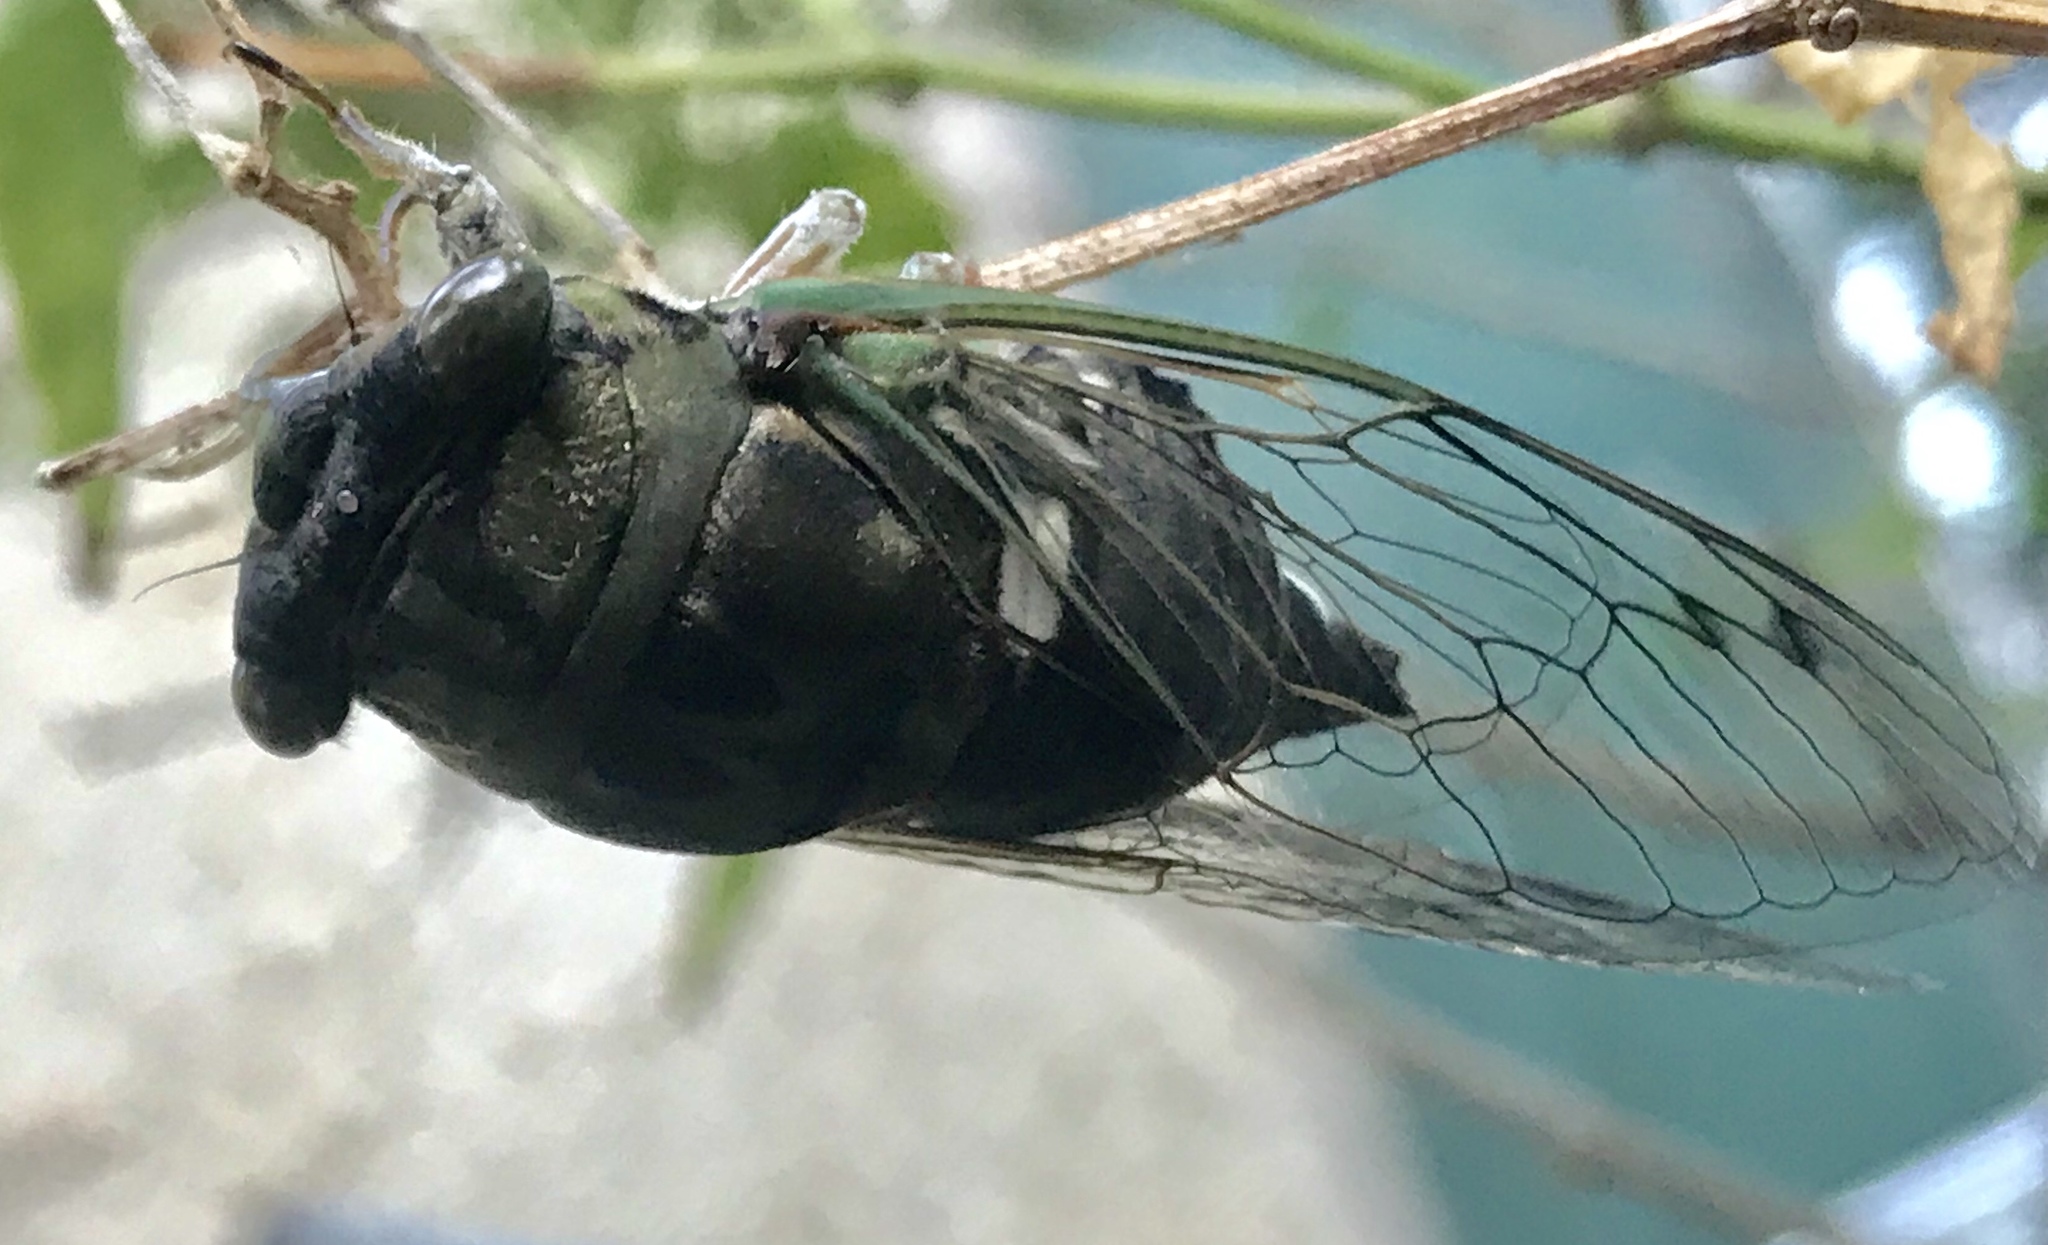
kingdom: Animalia
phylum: Arthropoda
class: Insecta
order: Hemiptera
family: Cicadidae
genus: Neotibicen
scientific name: Neotibicen pruinosus
